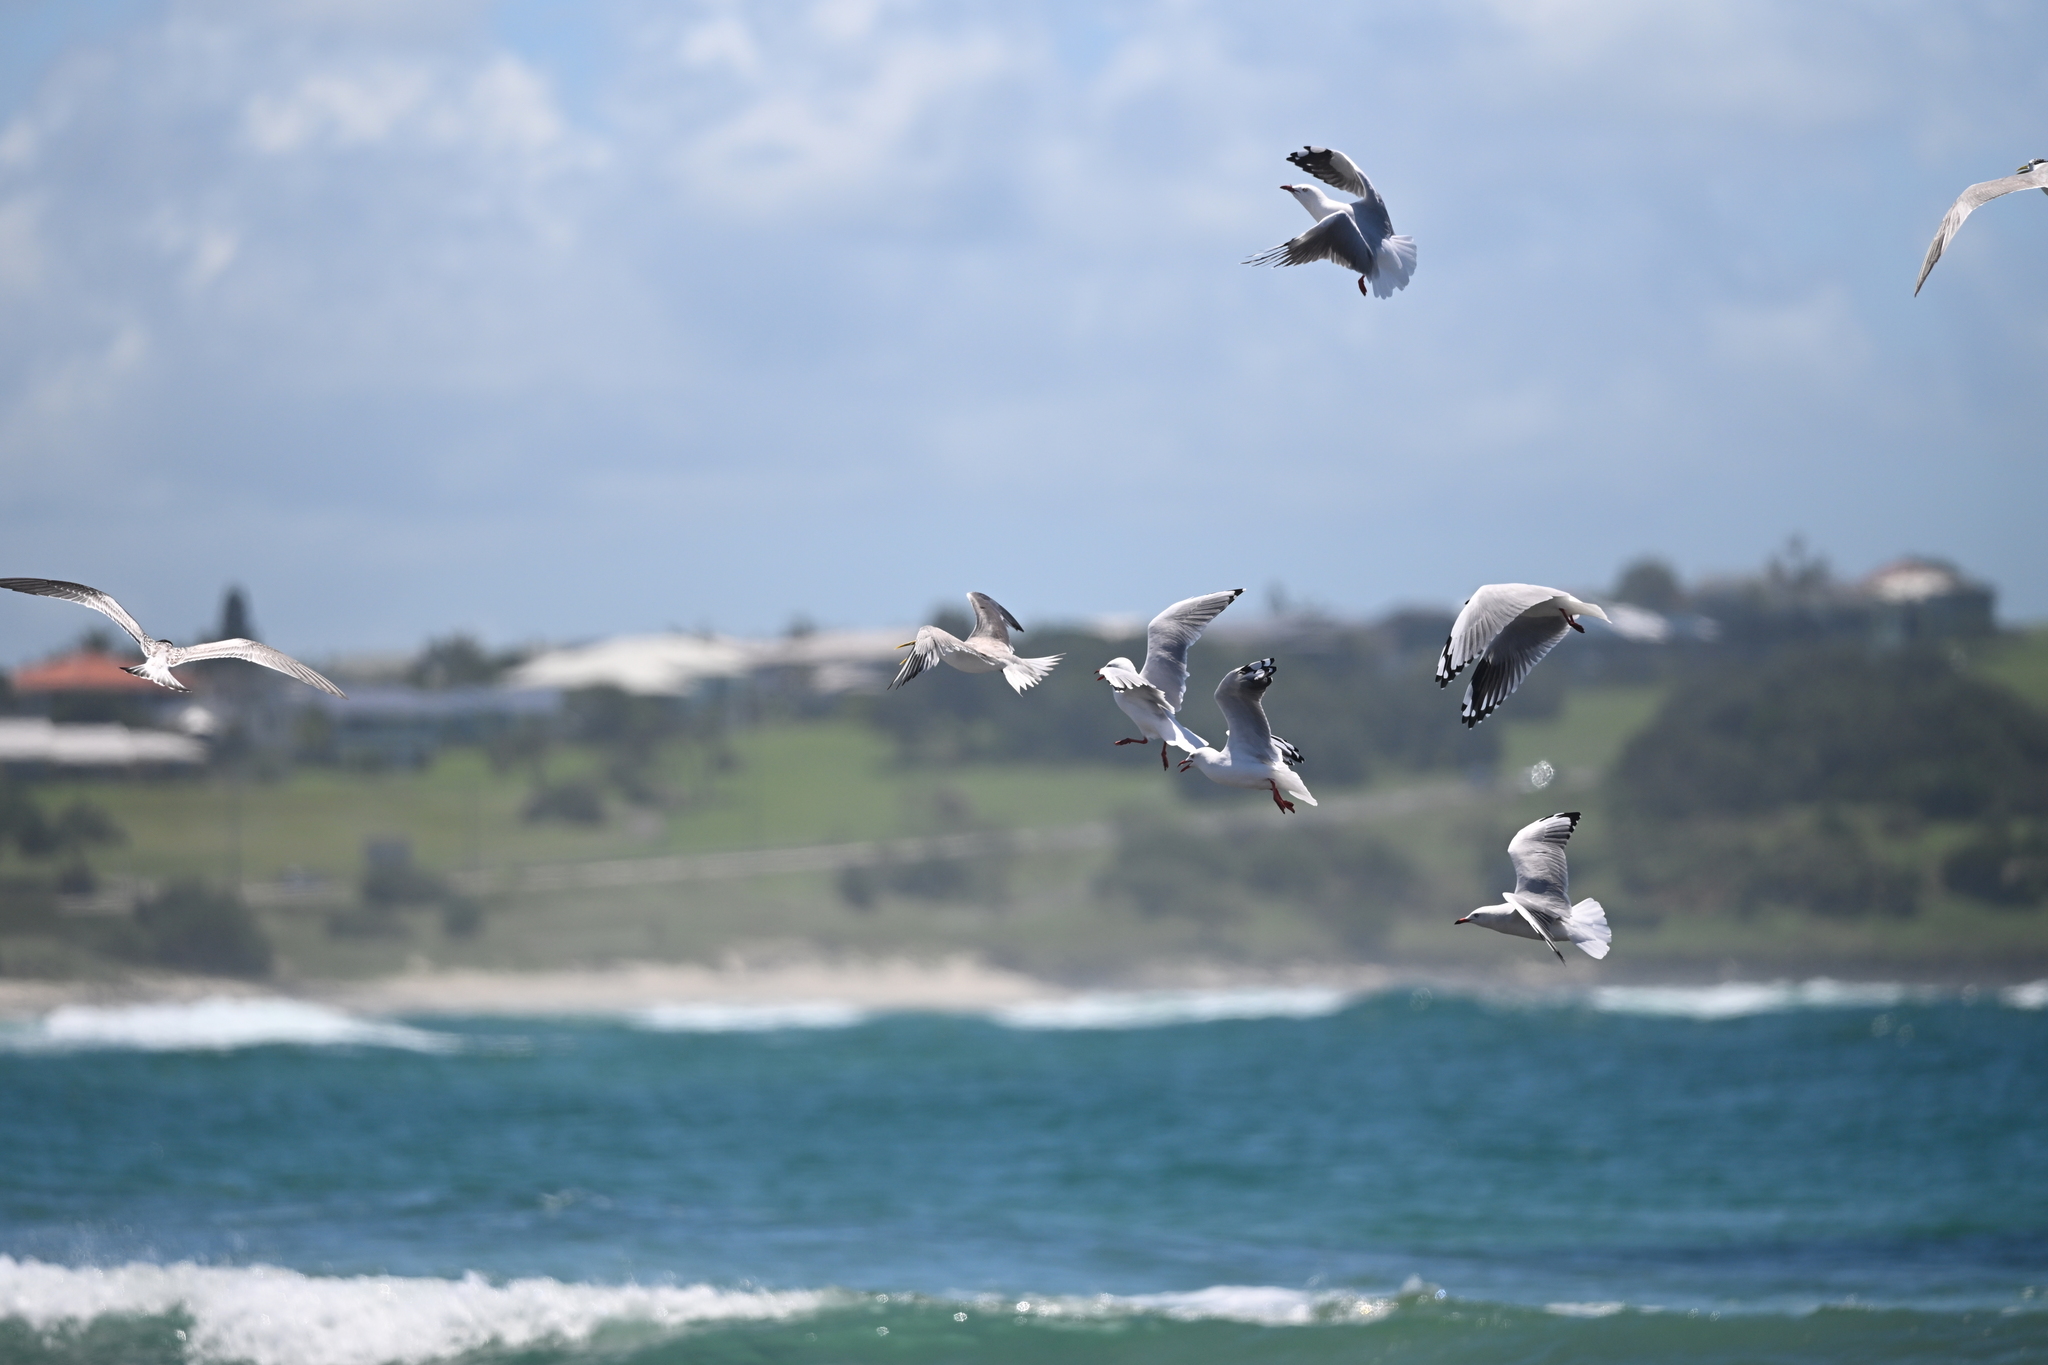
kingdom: Animalia
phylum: Chordata
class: Aves
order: Charadriiformes
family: Laridae
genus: Chroicocephalus
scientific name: Chroicocephalus novaehollandiae
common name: Silver gull
